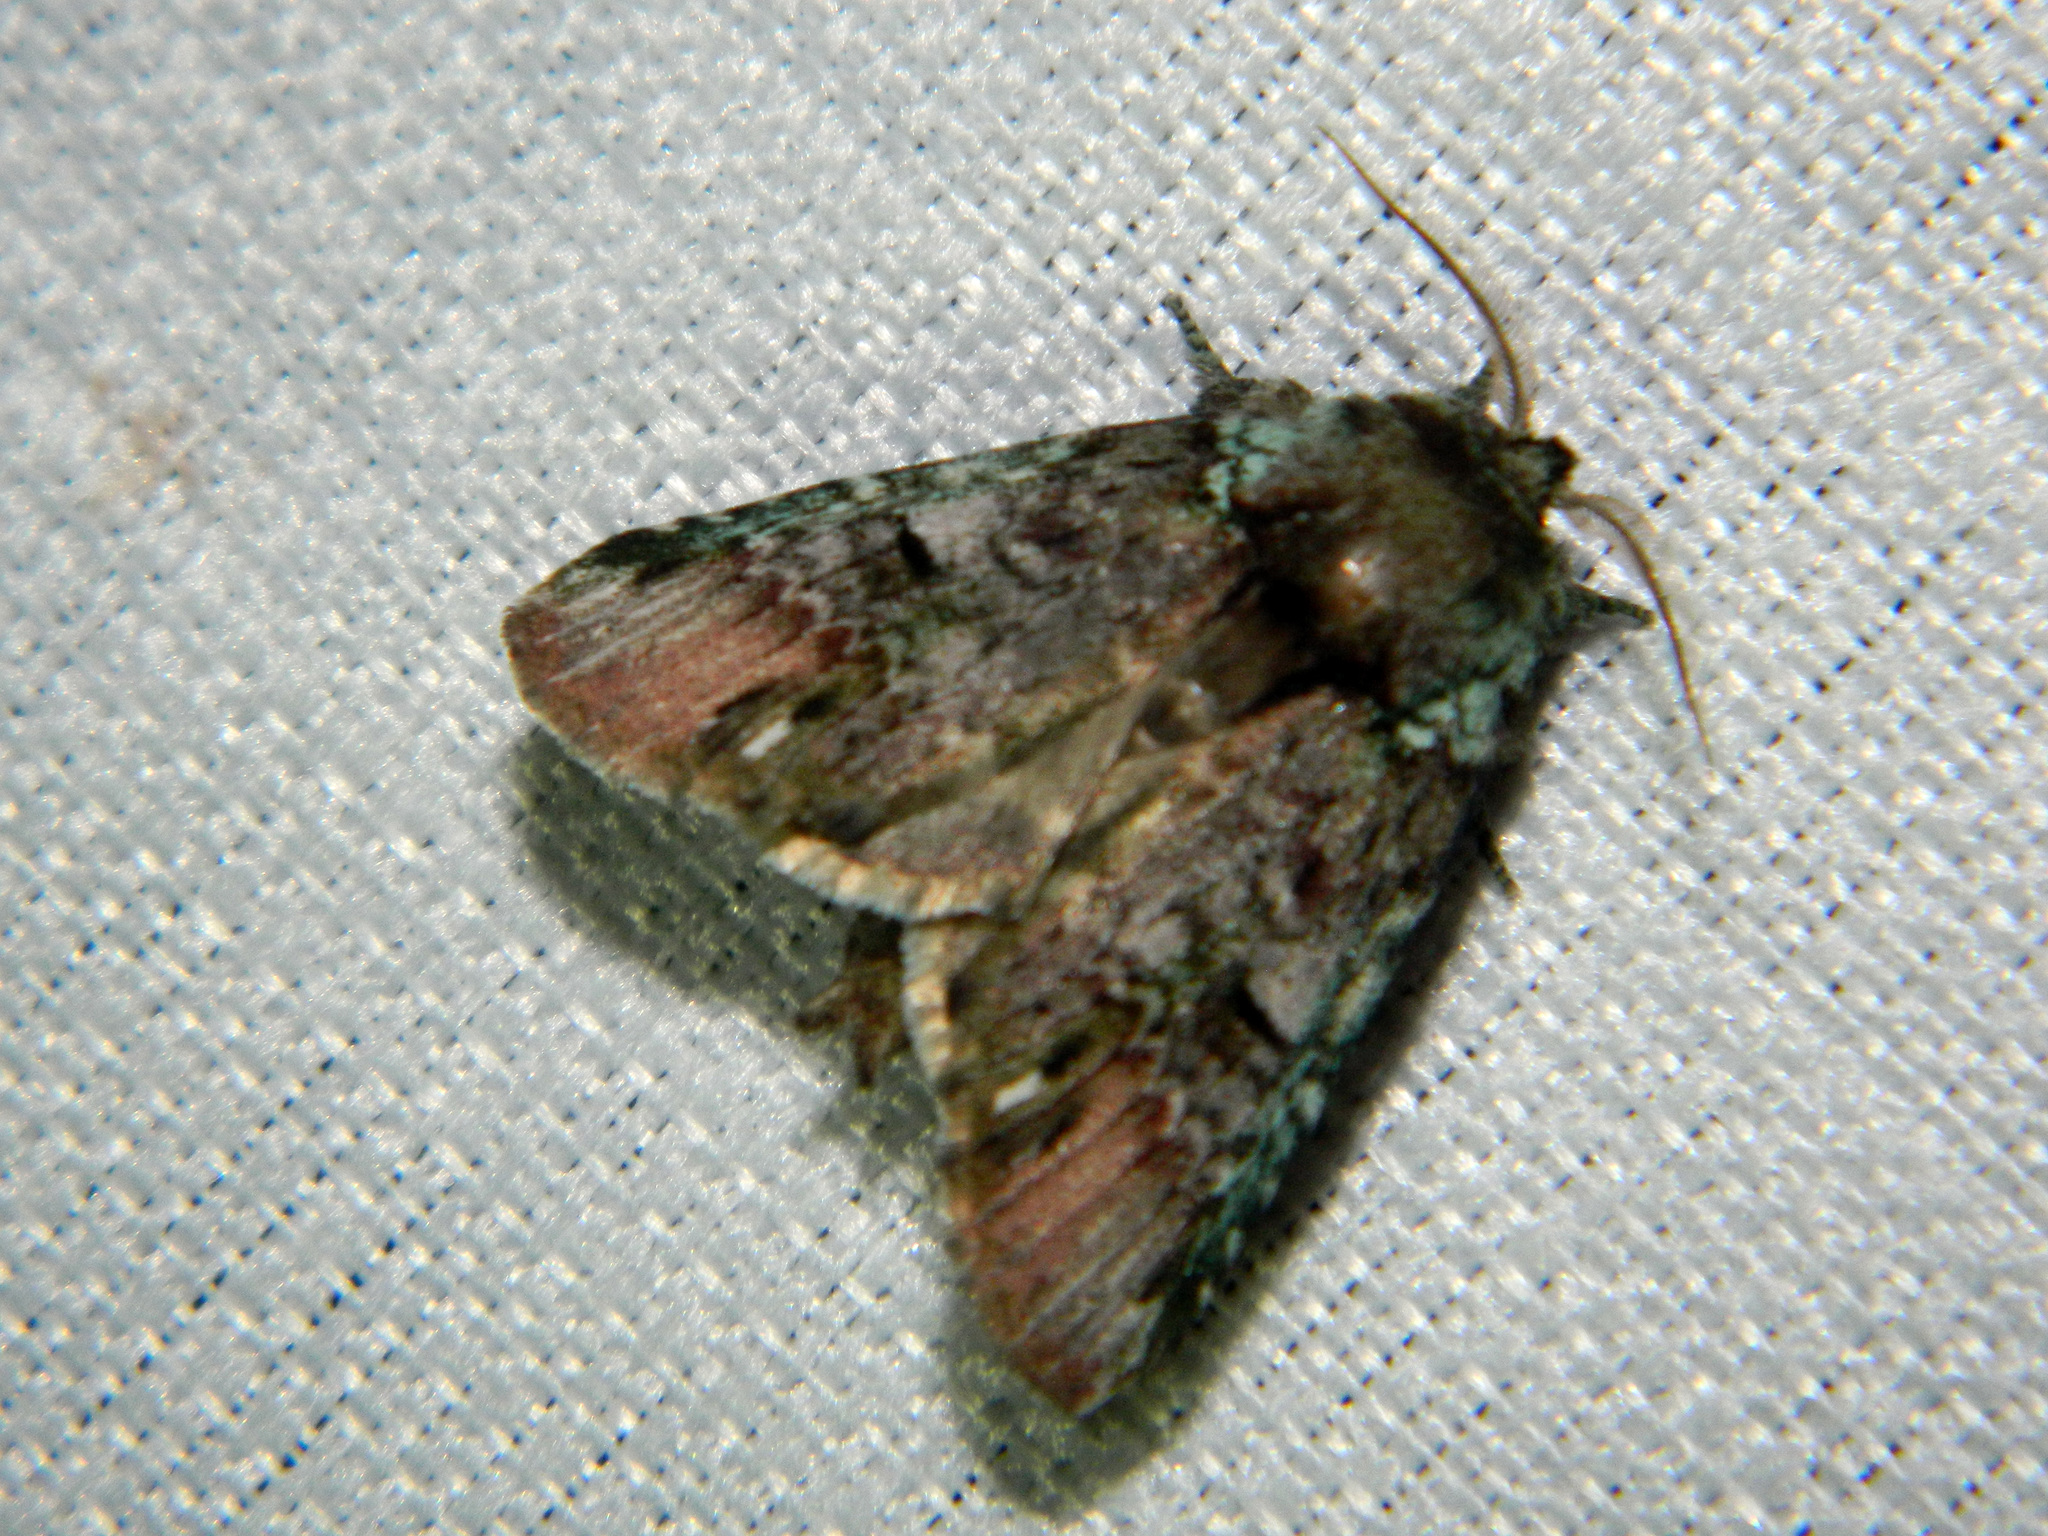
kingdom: Animalia
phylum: Arthropoda
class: Insecta
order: Lepidoptera
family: Notodontidae
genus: Schizura
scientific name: Schizura
